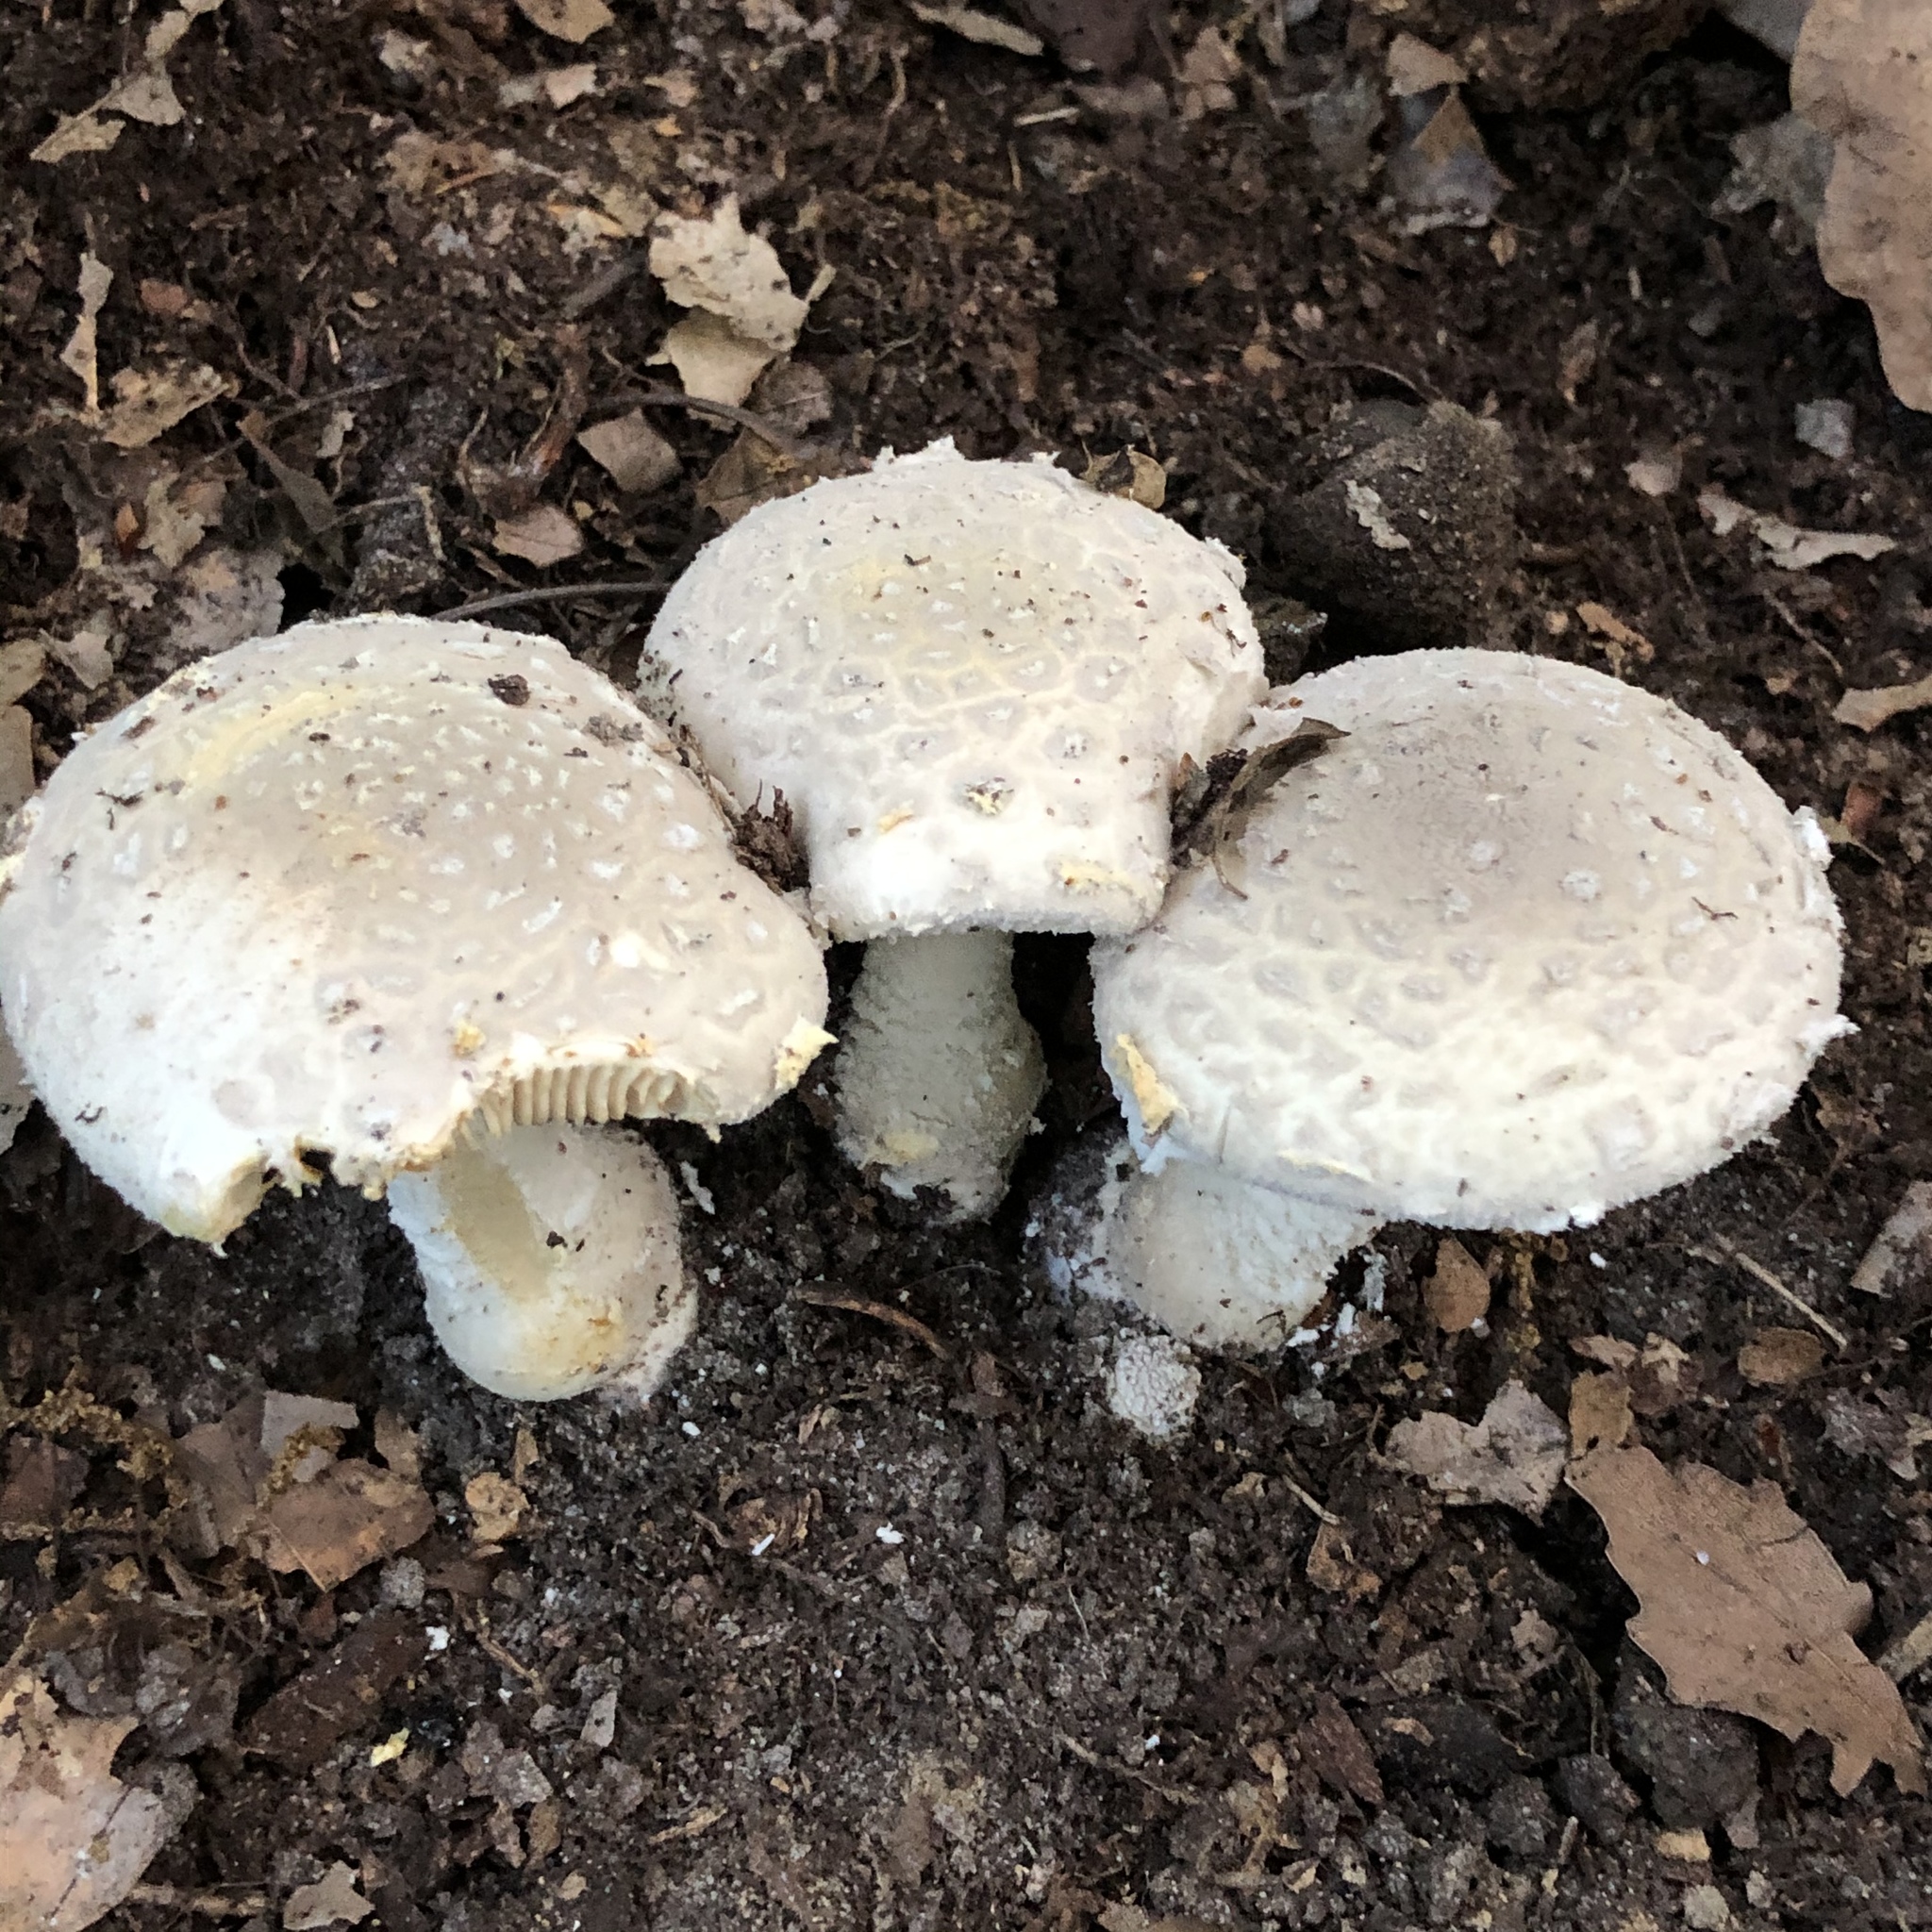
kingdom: Fungi
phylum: Basidiomycota
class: Agaricomycetes
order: Agaricales
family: Amanitaceae
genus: Amanita
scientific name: Amanita canescens
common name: Golden threads lepidella
